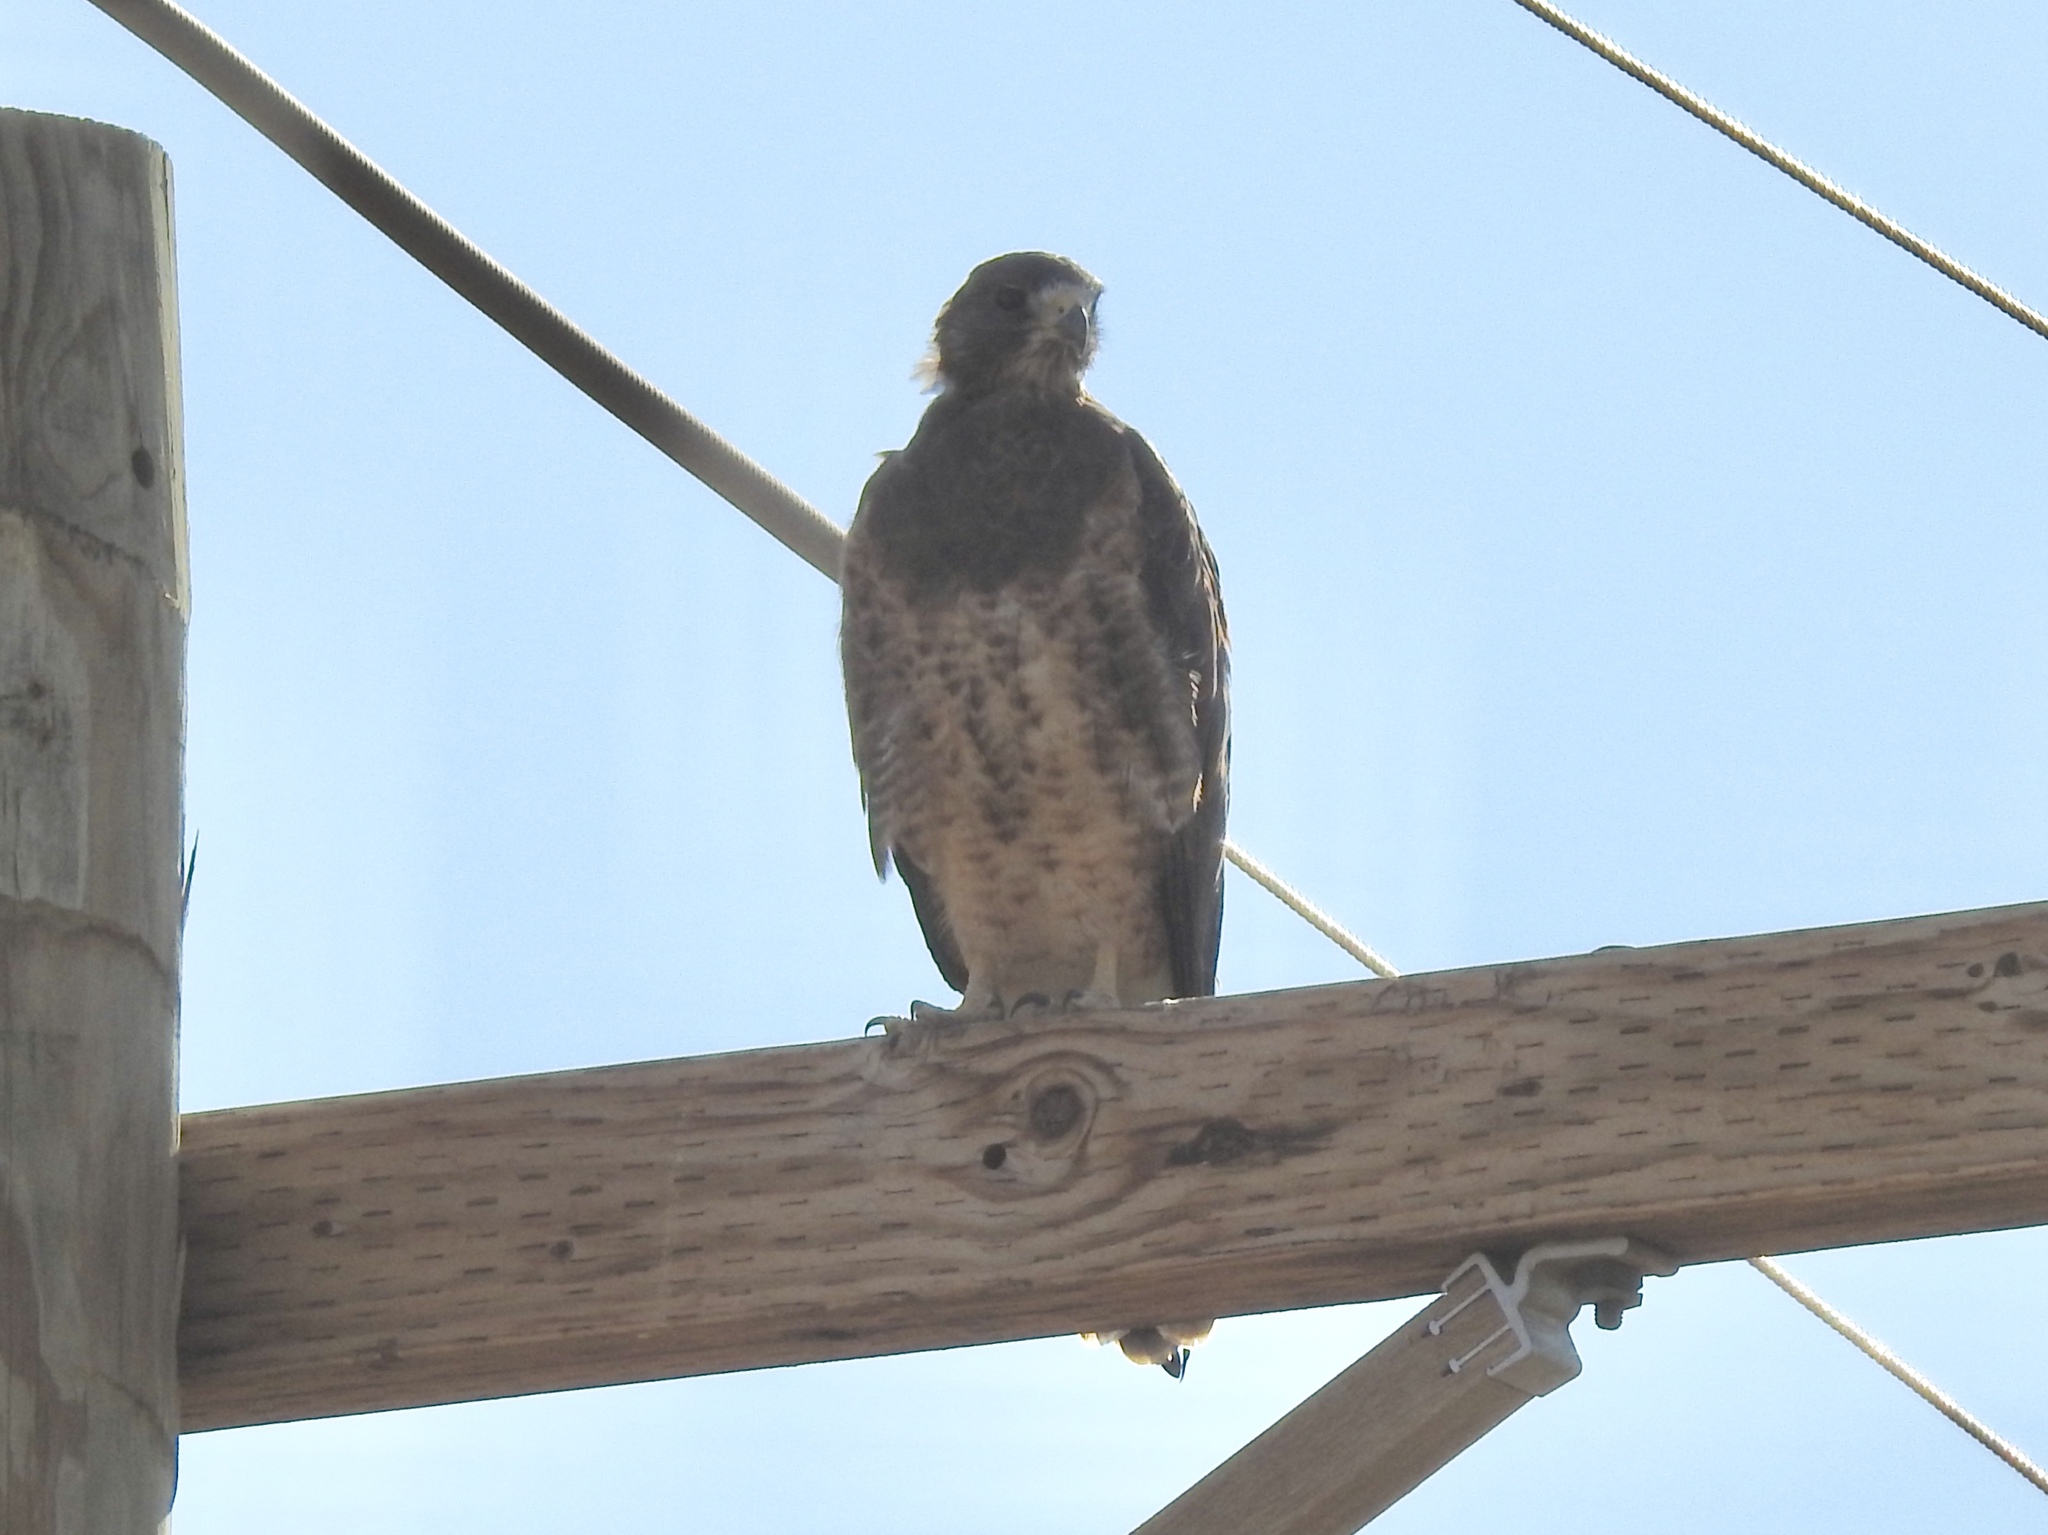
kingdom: Animalia
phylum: Chordata
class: Aves
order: Accipitriformes
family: Accipitridae
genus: Buteo
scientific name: Buteo swainsoni
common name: Swainson's hawk
